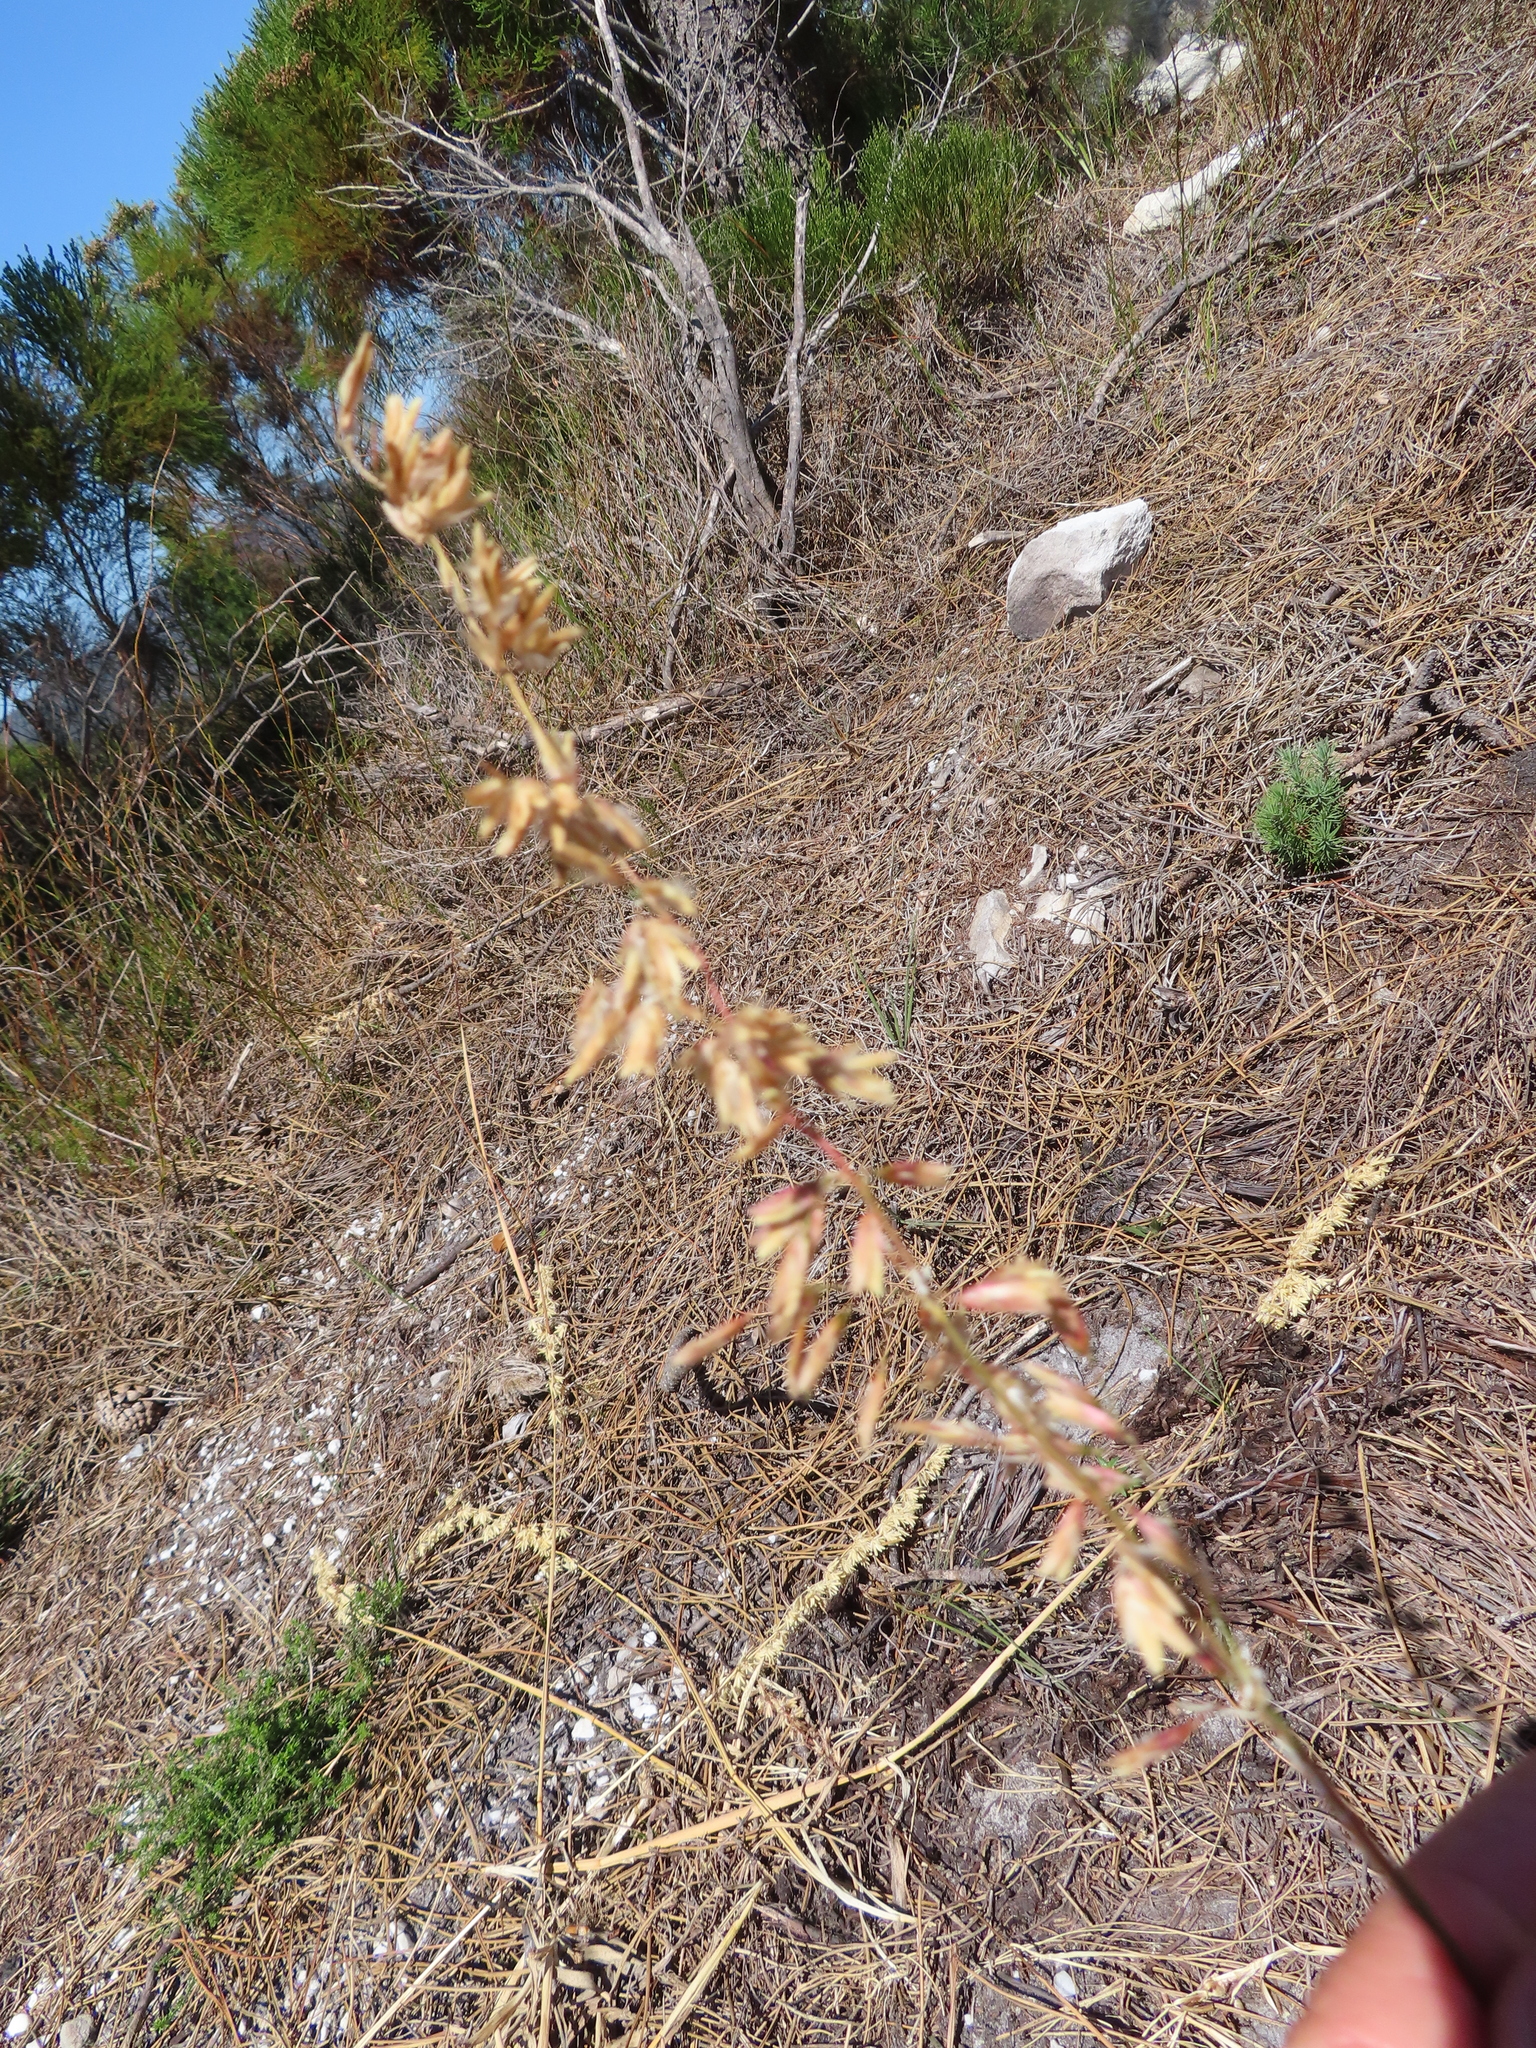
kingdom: Plantae
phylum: Tracheophyta
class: Liliopsida
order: Poales
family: Poaceae
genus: Ehrharta
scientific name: Ehrharta villosa
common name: Pyp grass
